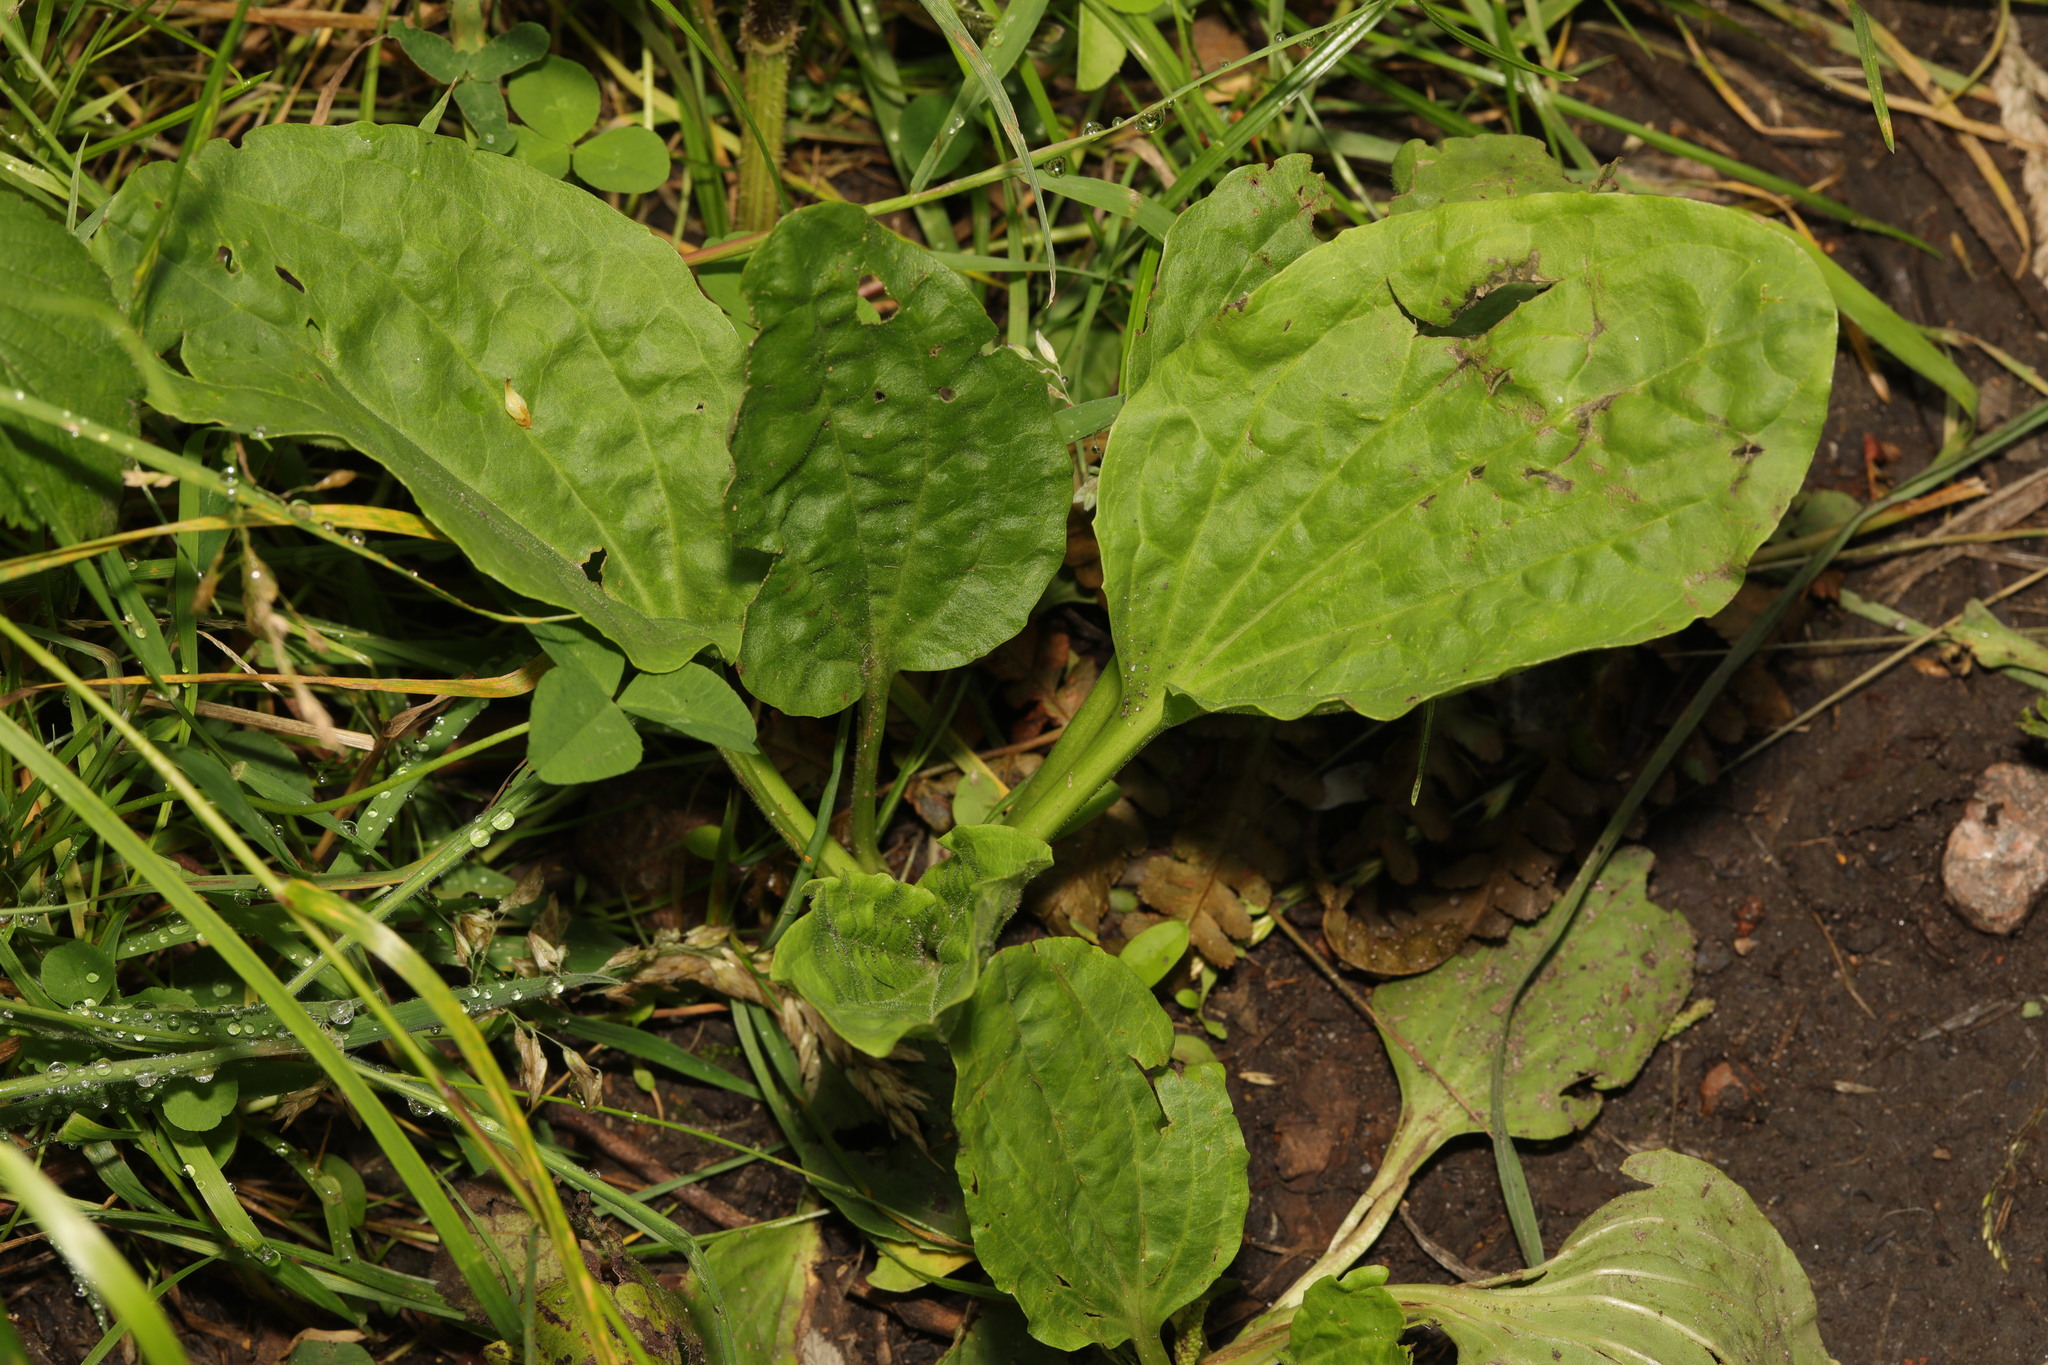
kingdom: Plantae
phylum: Tracheophyta
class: Magnoliopsida
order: Lamiales
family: Plantaginaceae
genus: Plantago
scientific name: Plantago major
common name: Common plantain
